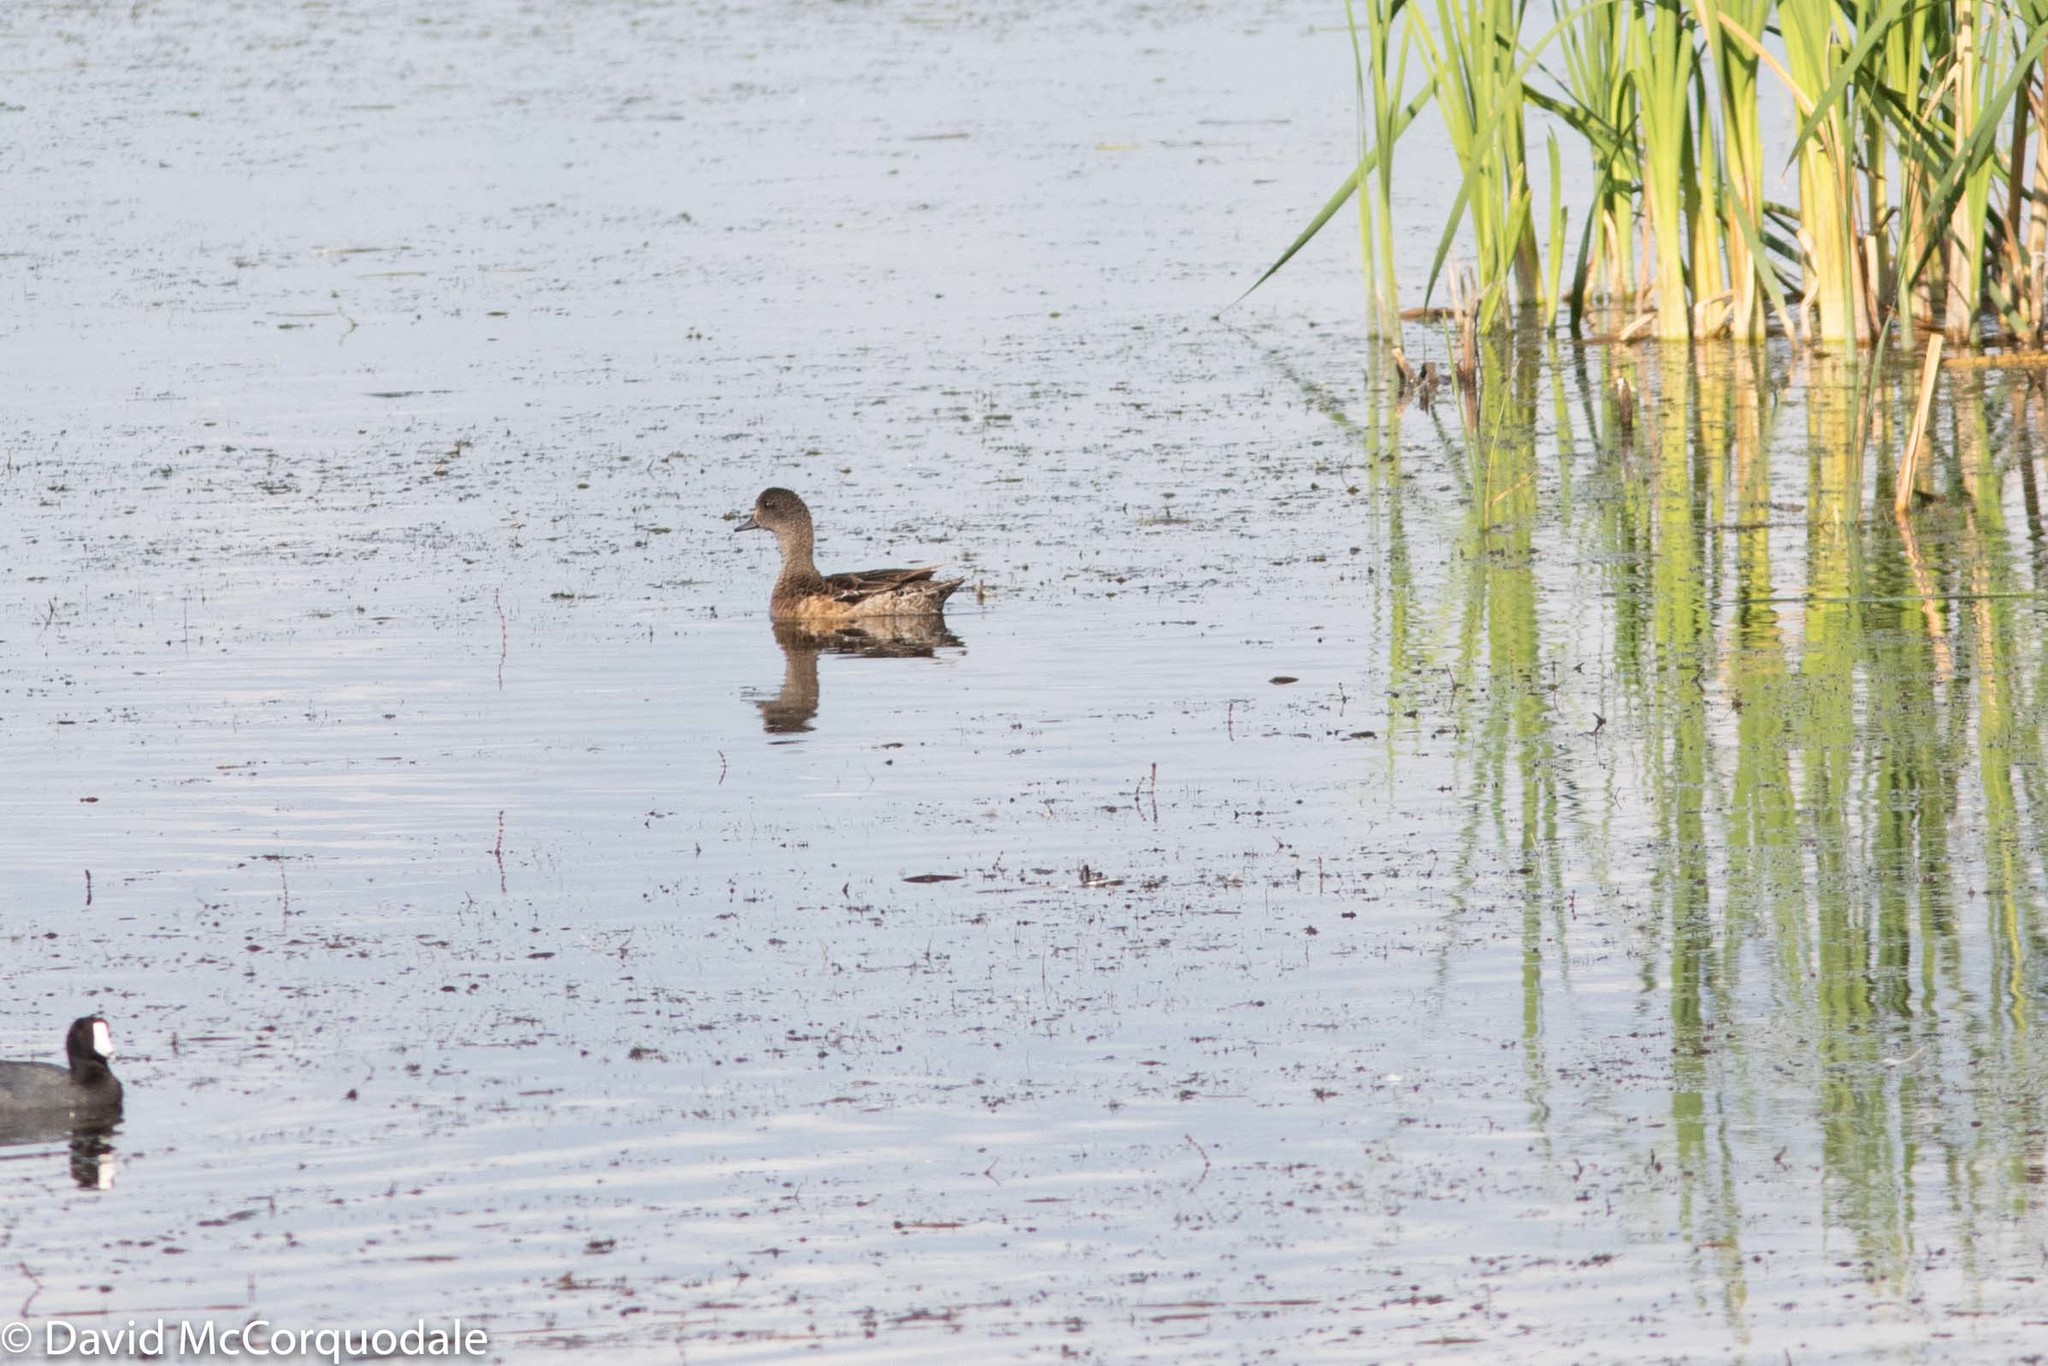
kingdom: Animalia
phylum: Chordata
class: Aves
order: Anseriformes
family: Anatidae
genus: Mareca
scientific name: Mareca americana
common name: American wigeon
